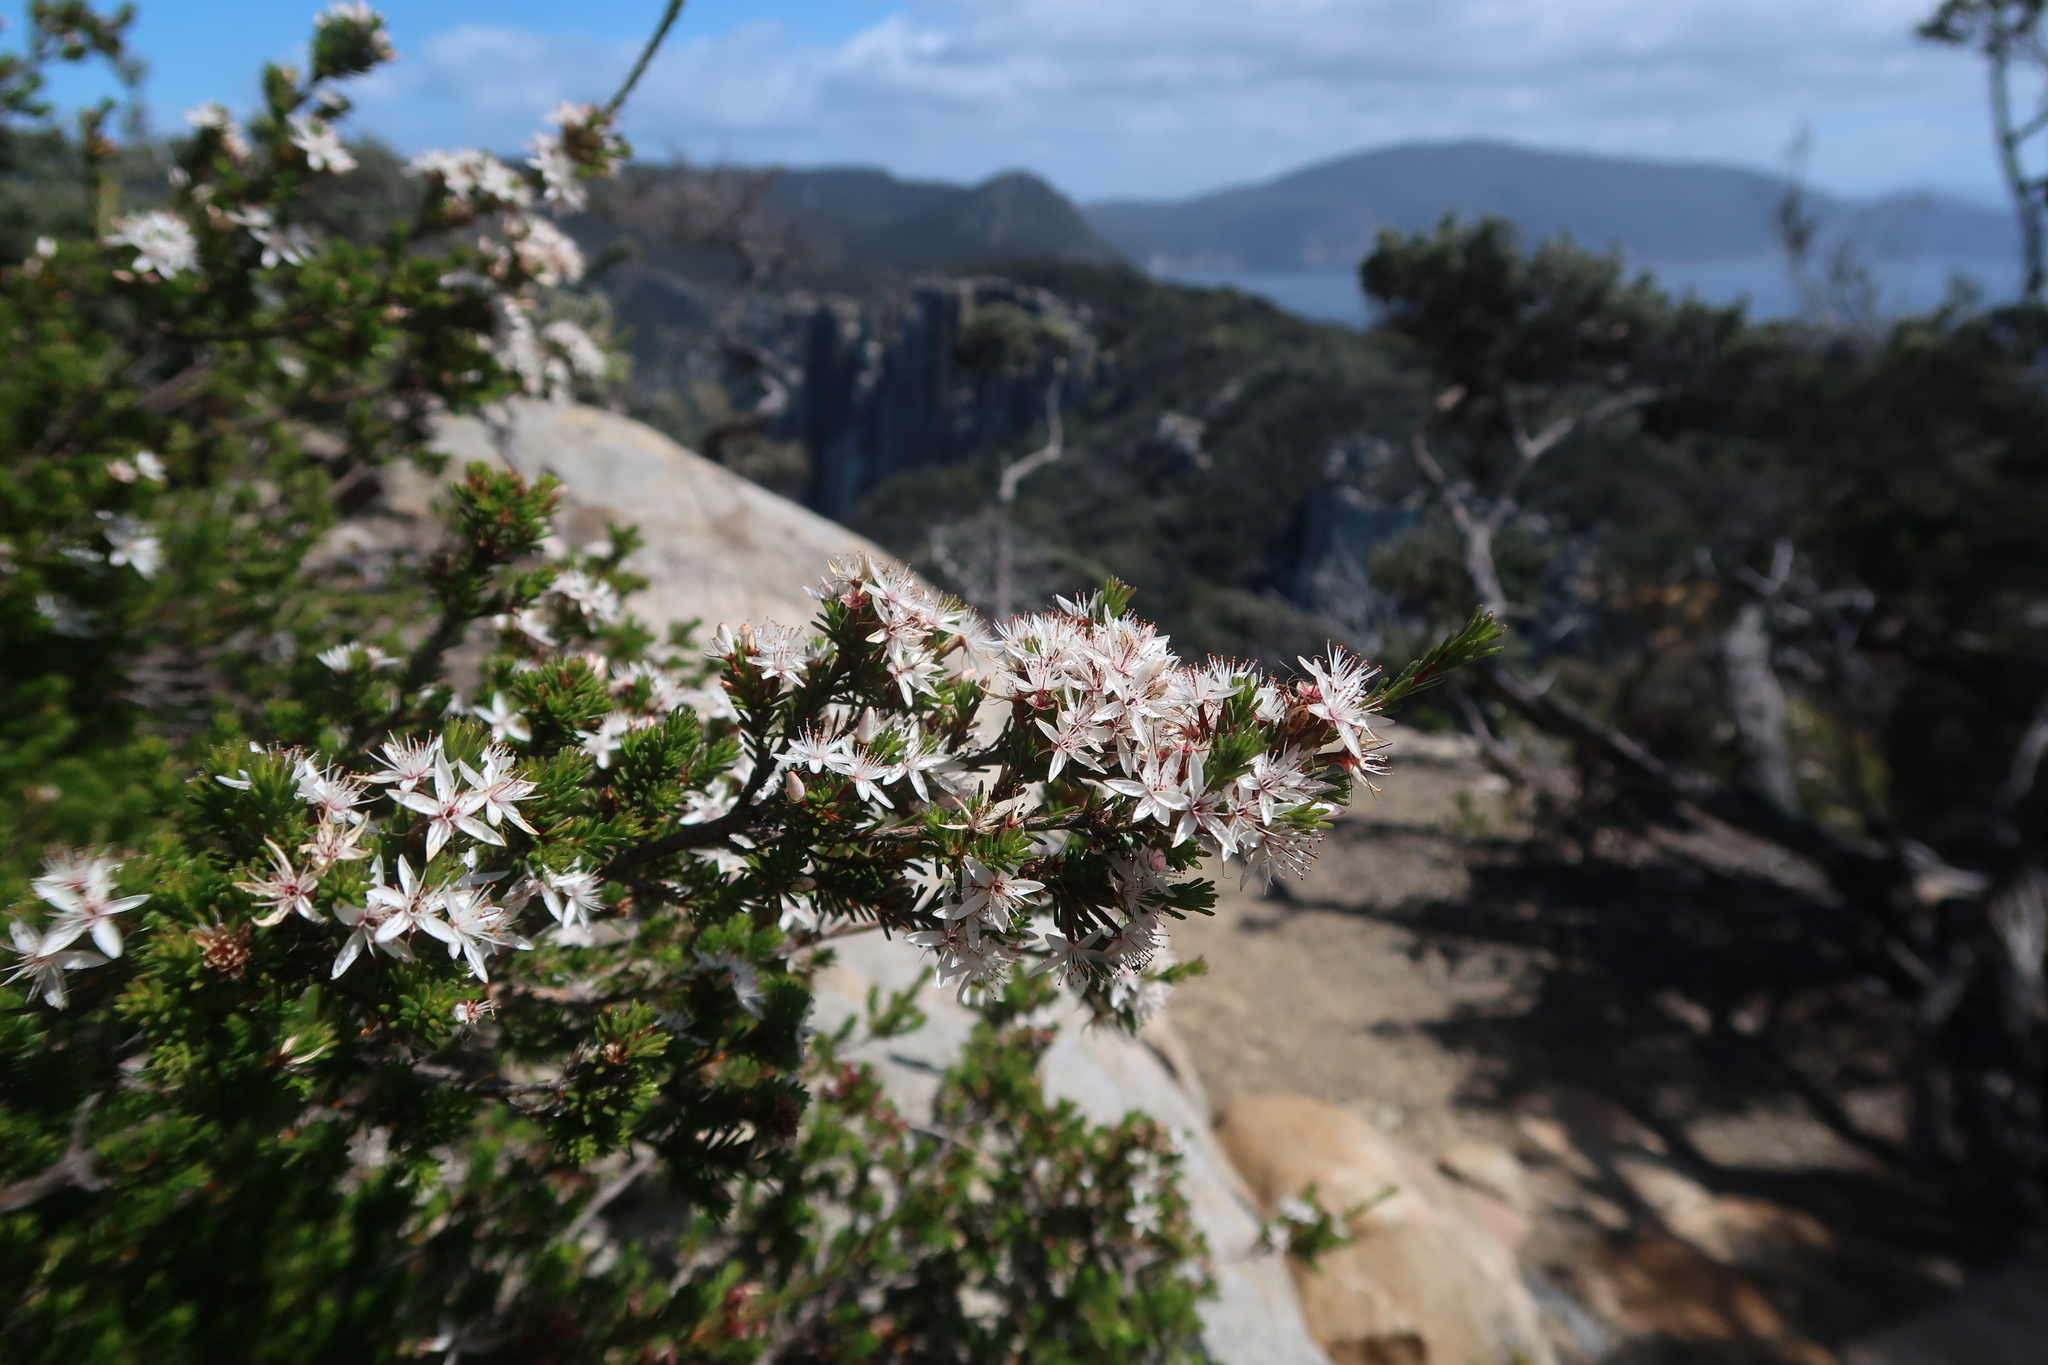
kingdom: Plantae
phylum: Tracheophyta
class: Magnoliopsida
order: Myrtales
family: Myrtaceae
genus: Calytrix
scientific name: Calytrix tetragona
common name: Common fringe myrtle
